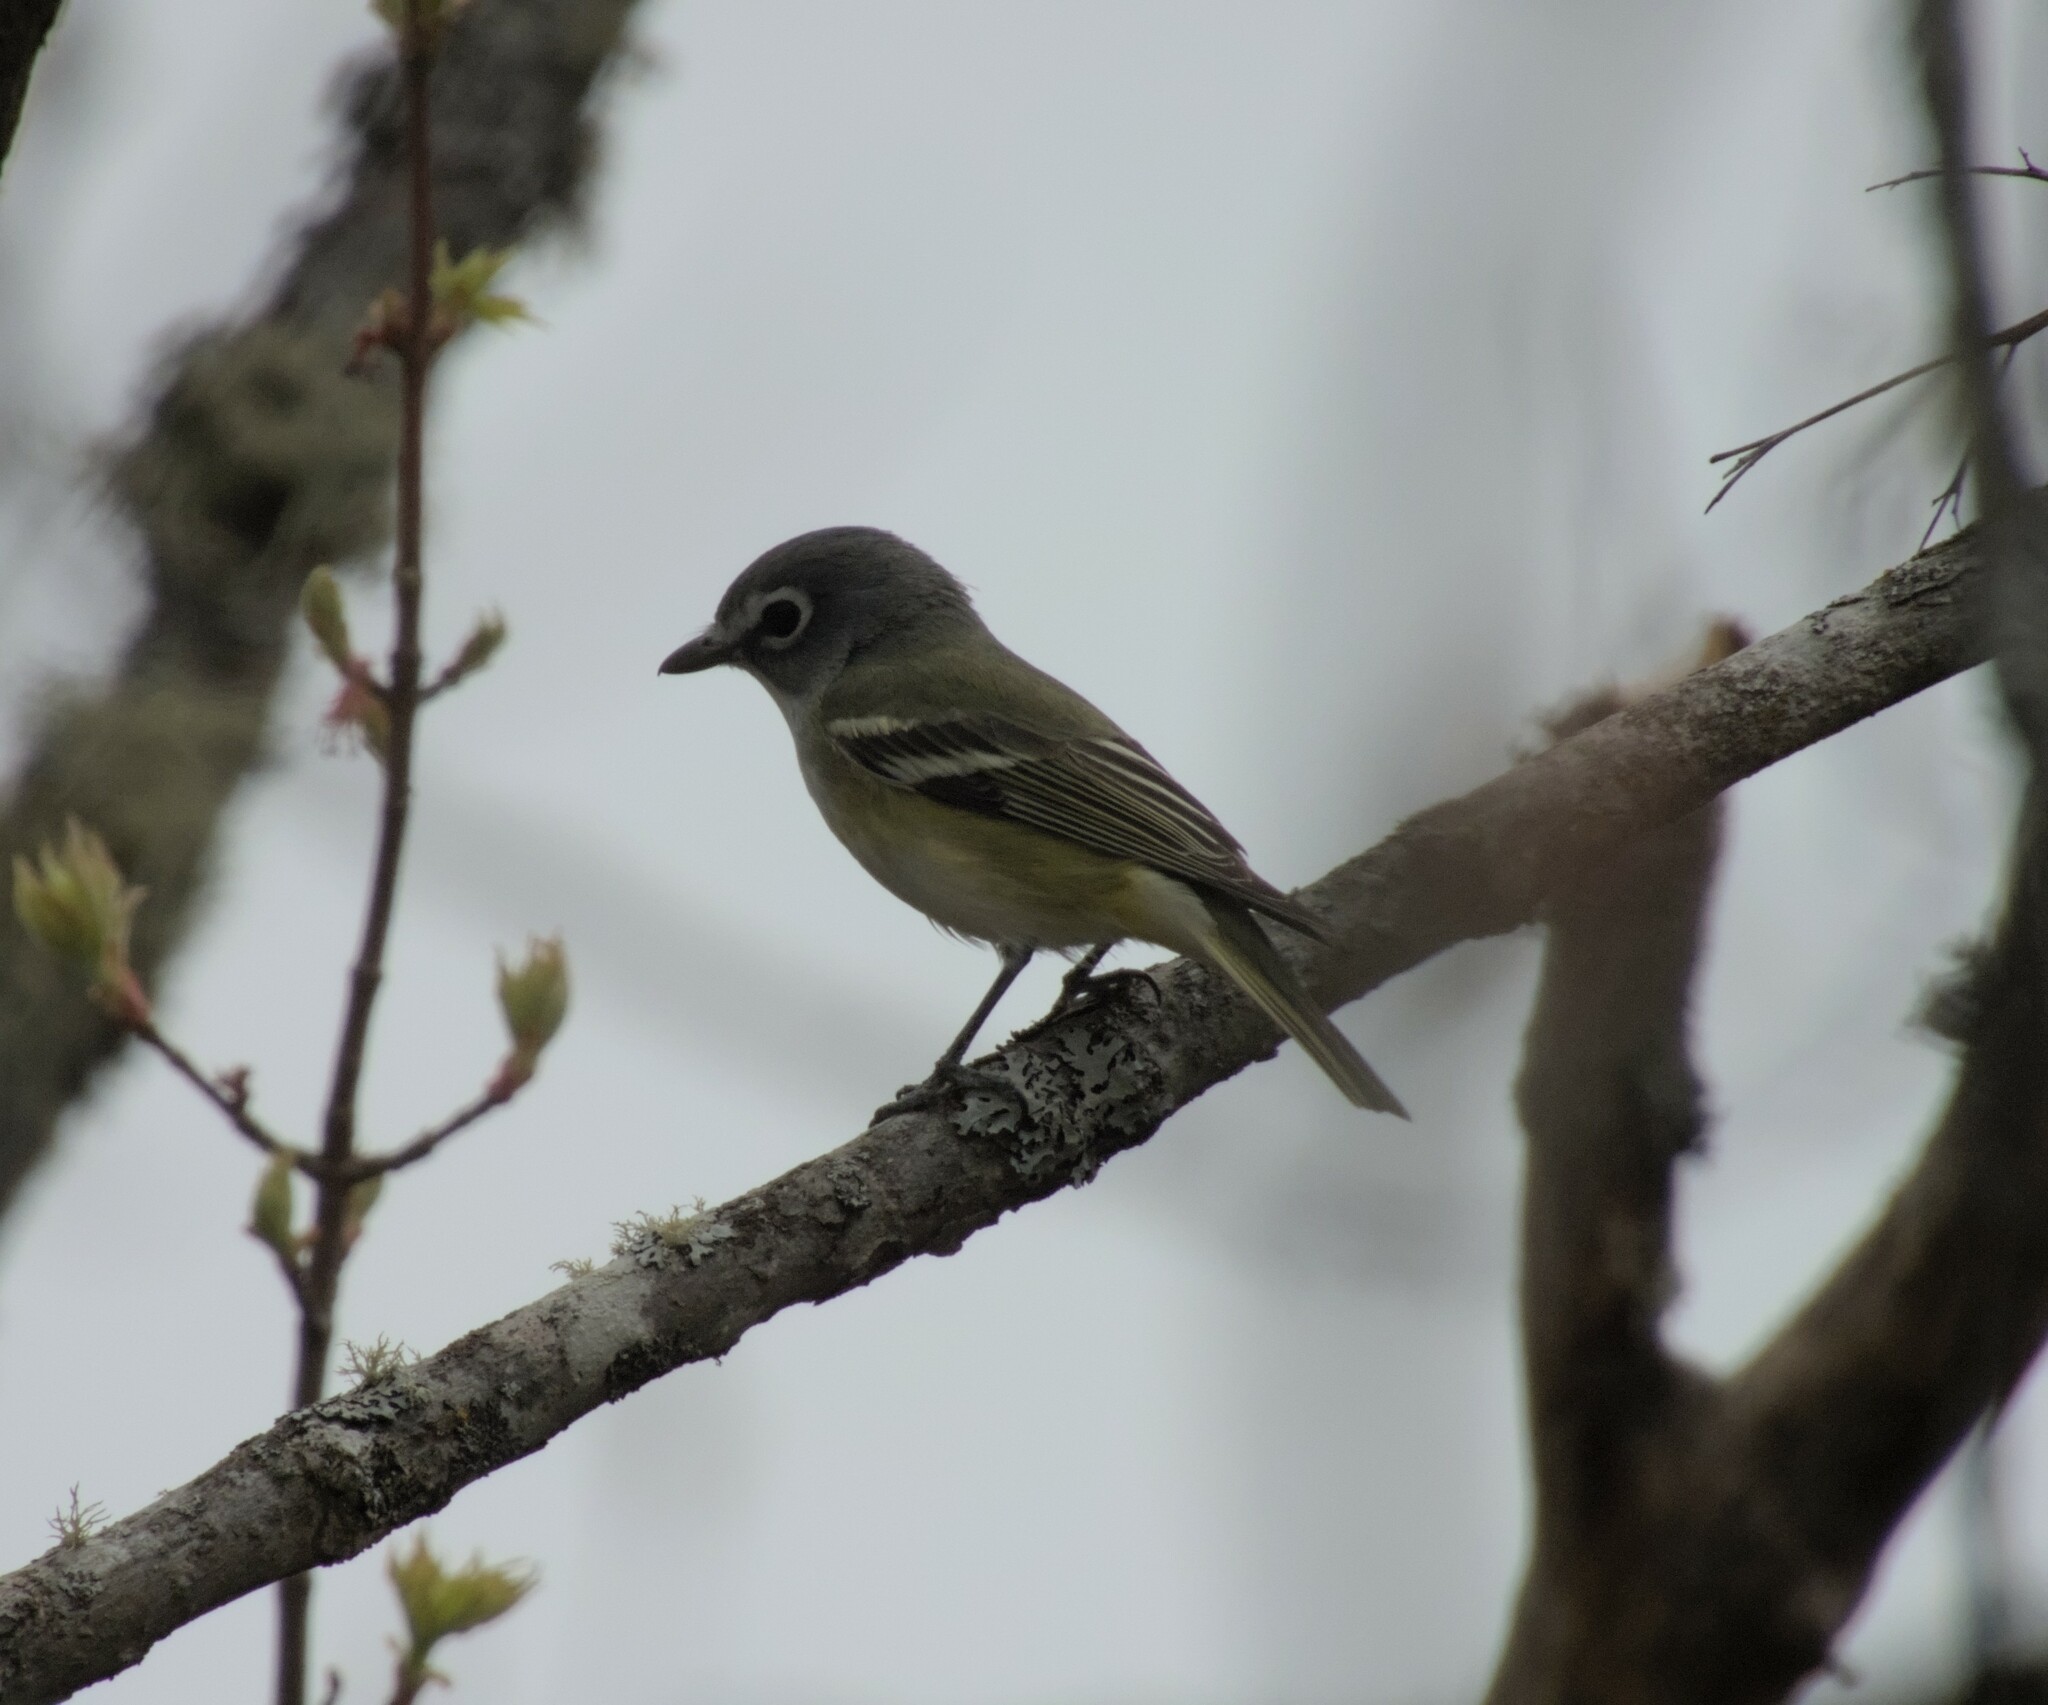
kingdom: Animalia
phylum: Chordata
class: Aves
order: Passeriformes
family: Vireonidae
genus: Vireo
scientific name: Vireo solitarius
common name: Blue-headed vireo
